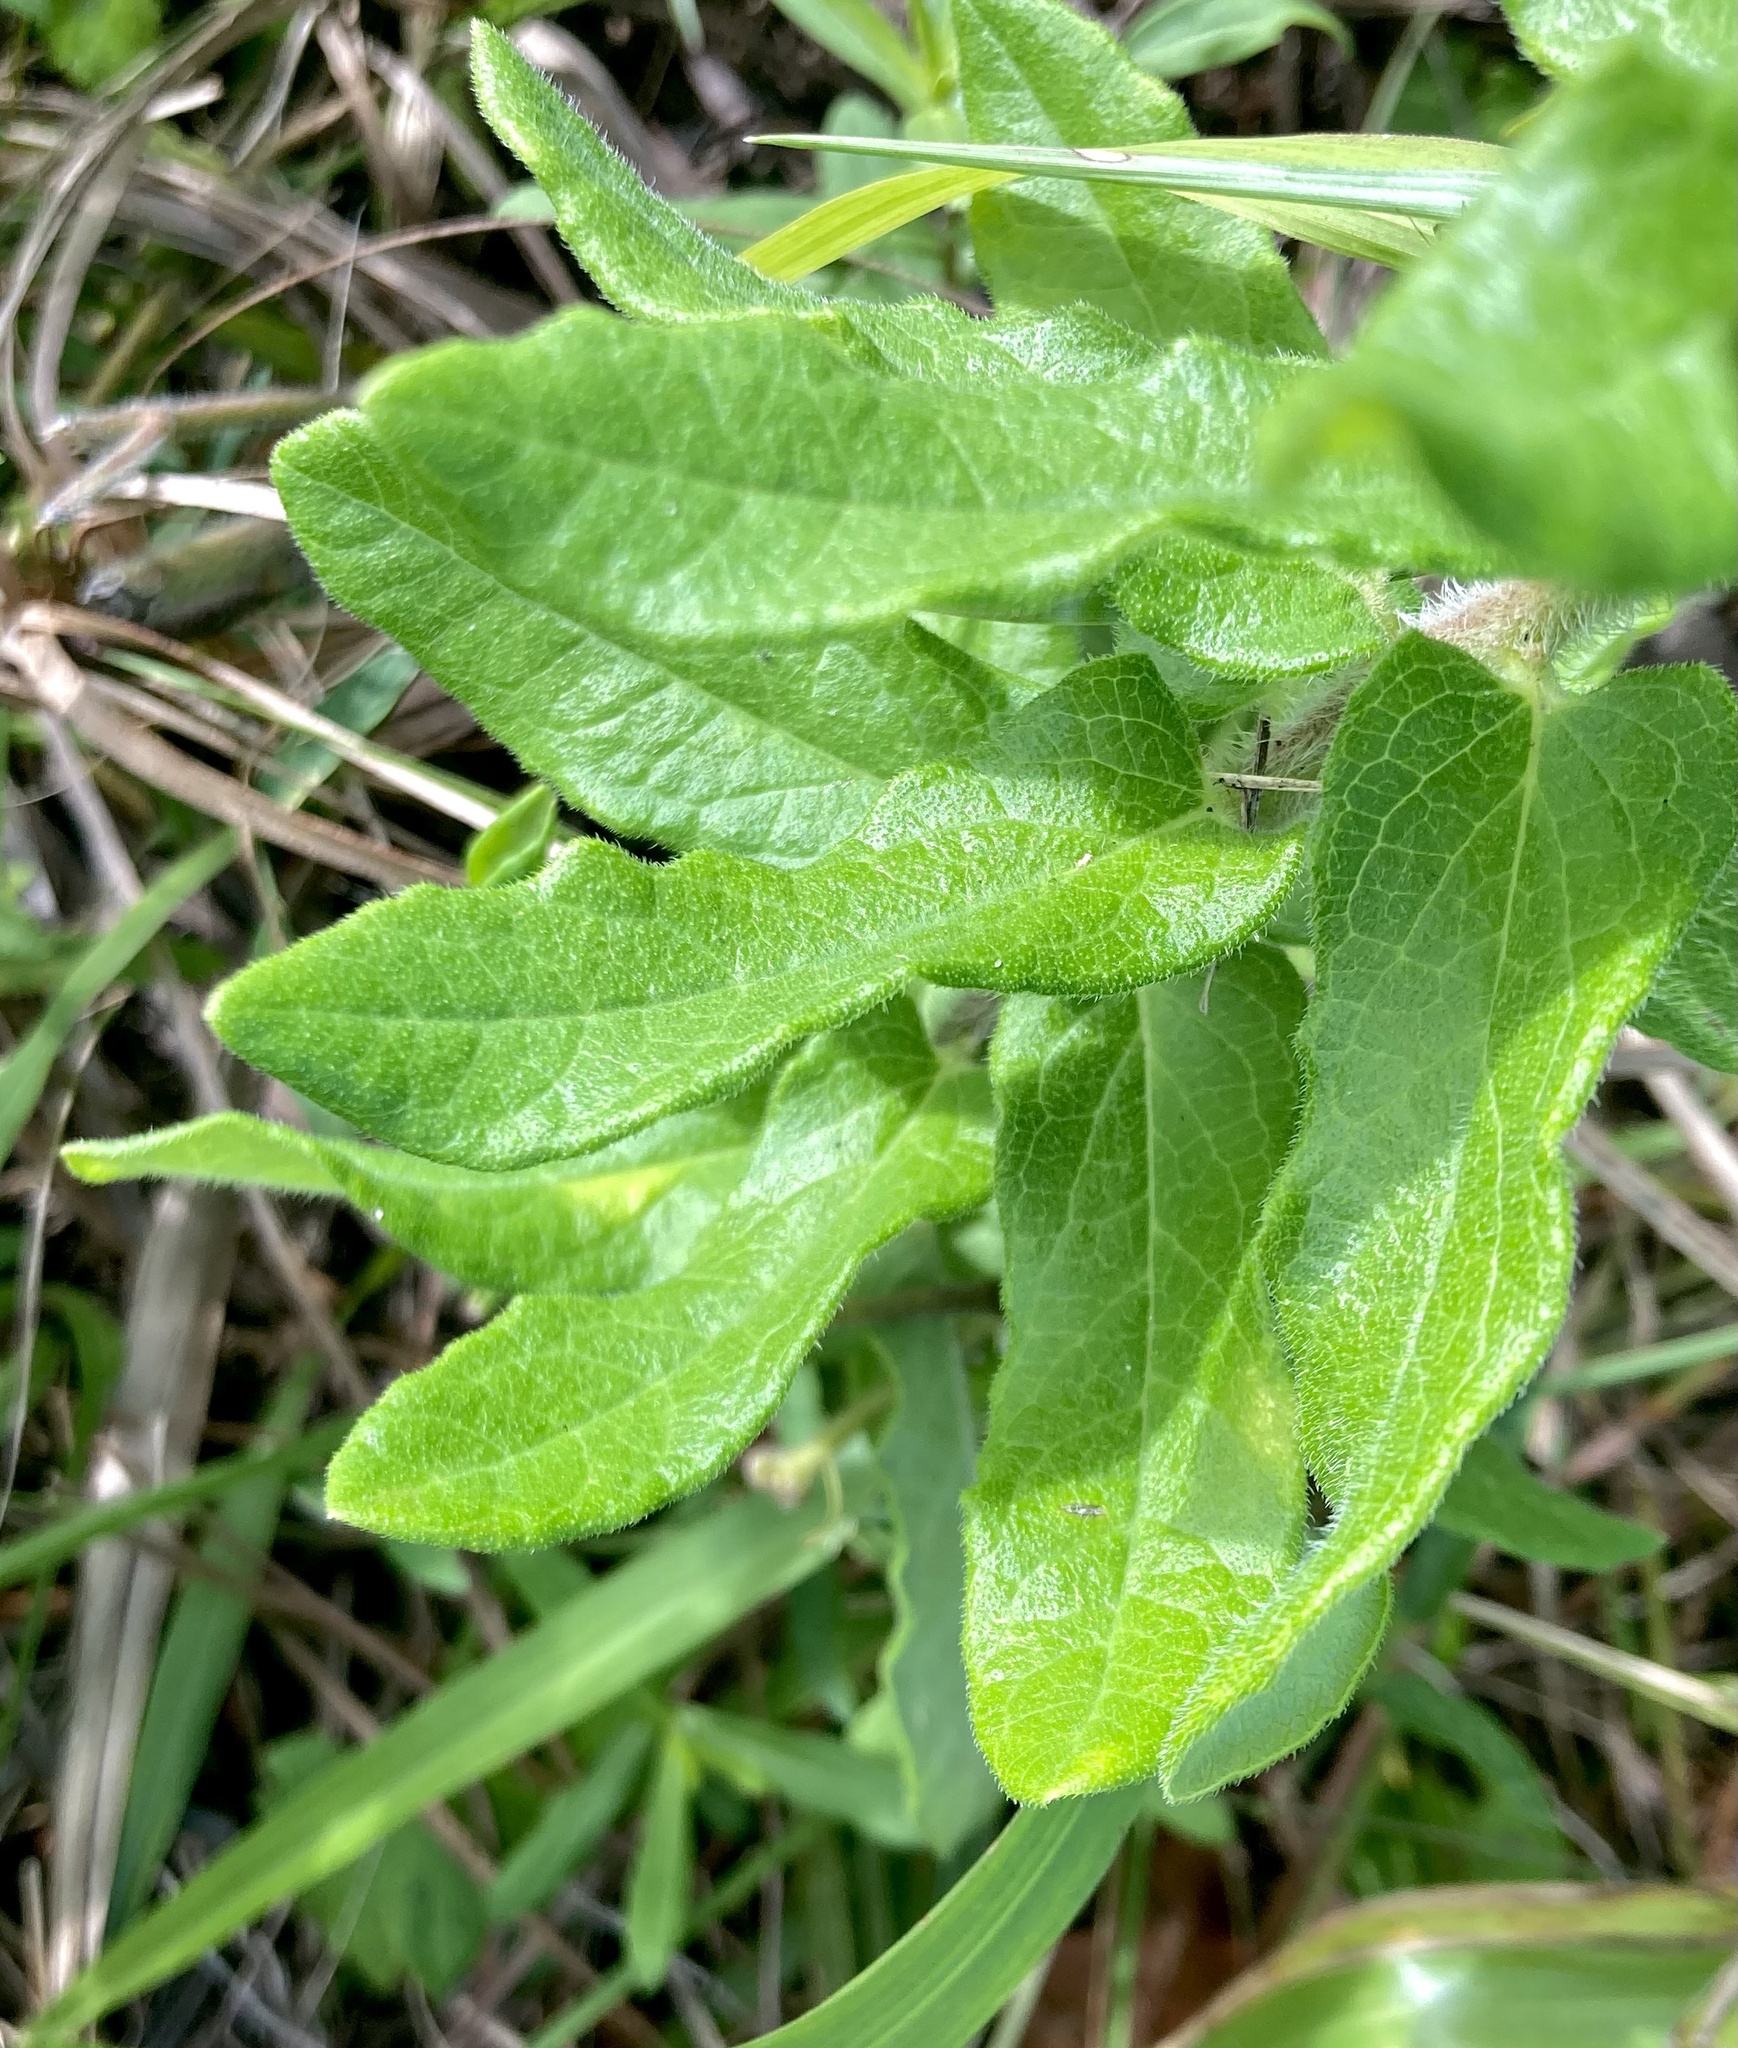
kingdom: Plantae
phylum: Tracheophyta
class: Magnoliopsida
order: Gentianales
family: Apocynaceae
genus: Asclepias
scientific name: Asclepias tuberosa
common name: Butterfly milkweed
